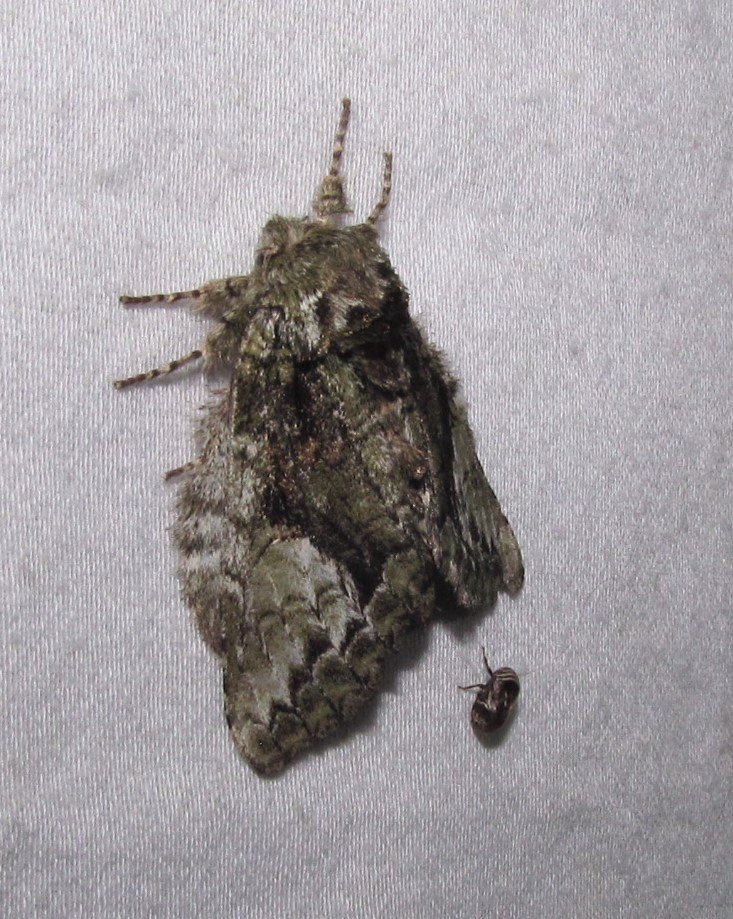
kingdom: Animalia
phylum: Arthropoda
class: Insecta
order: Lepidoptera
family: Notodontidae
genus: Heterocampa
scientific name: Heterocampa
